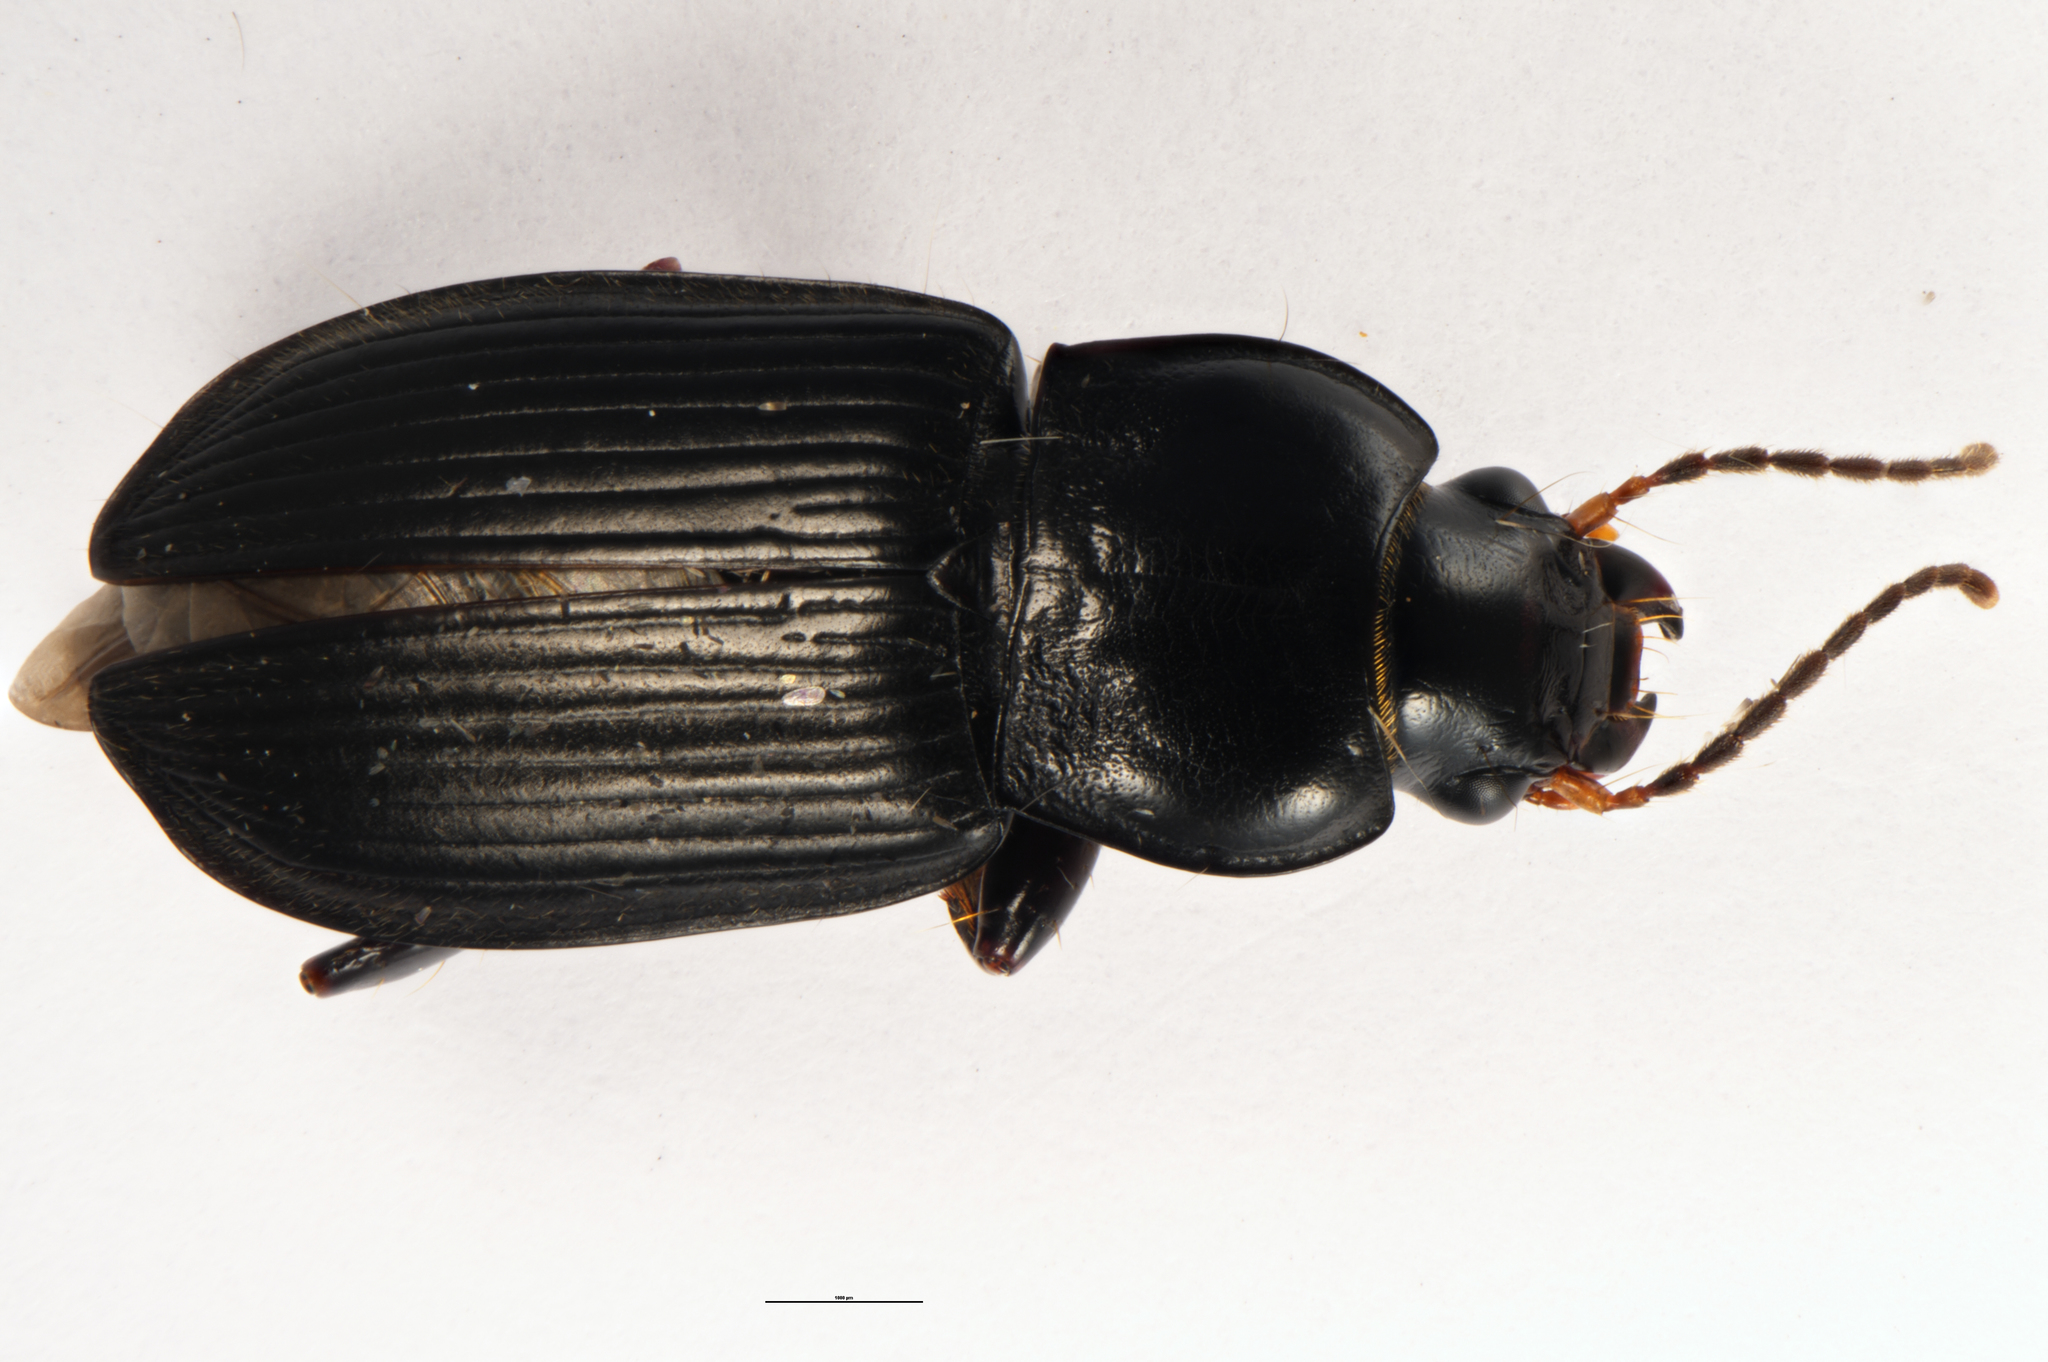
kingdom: Animalia
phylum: Arthropoda
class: Insecta
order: Coleoptera
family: Carabidae
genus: Anisodactylus
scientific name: Anisodactylus binotatus
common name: Two-marked harp ground beetle
